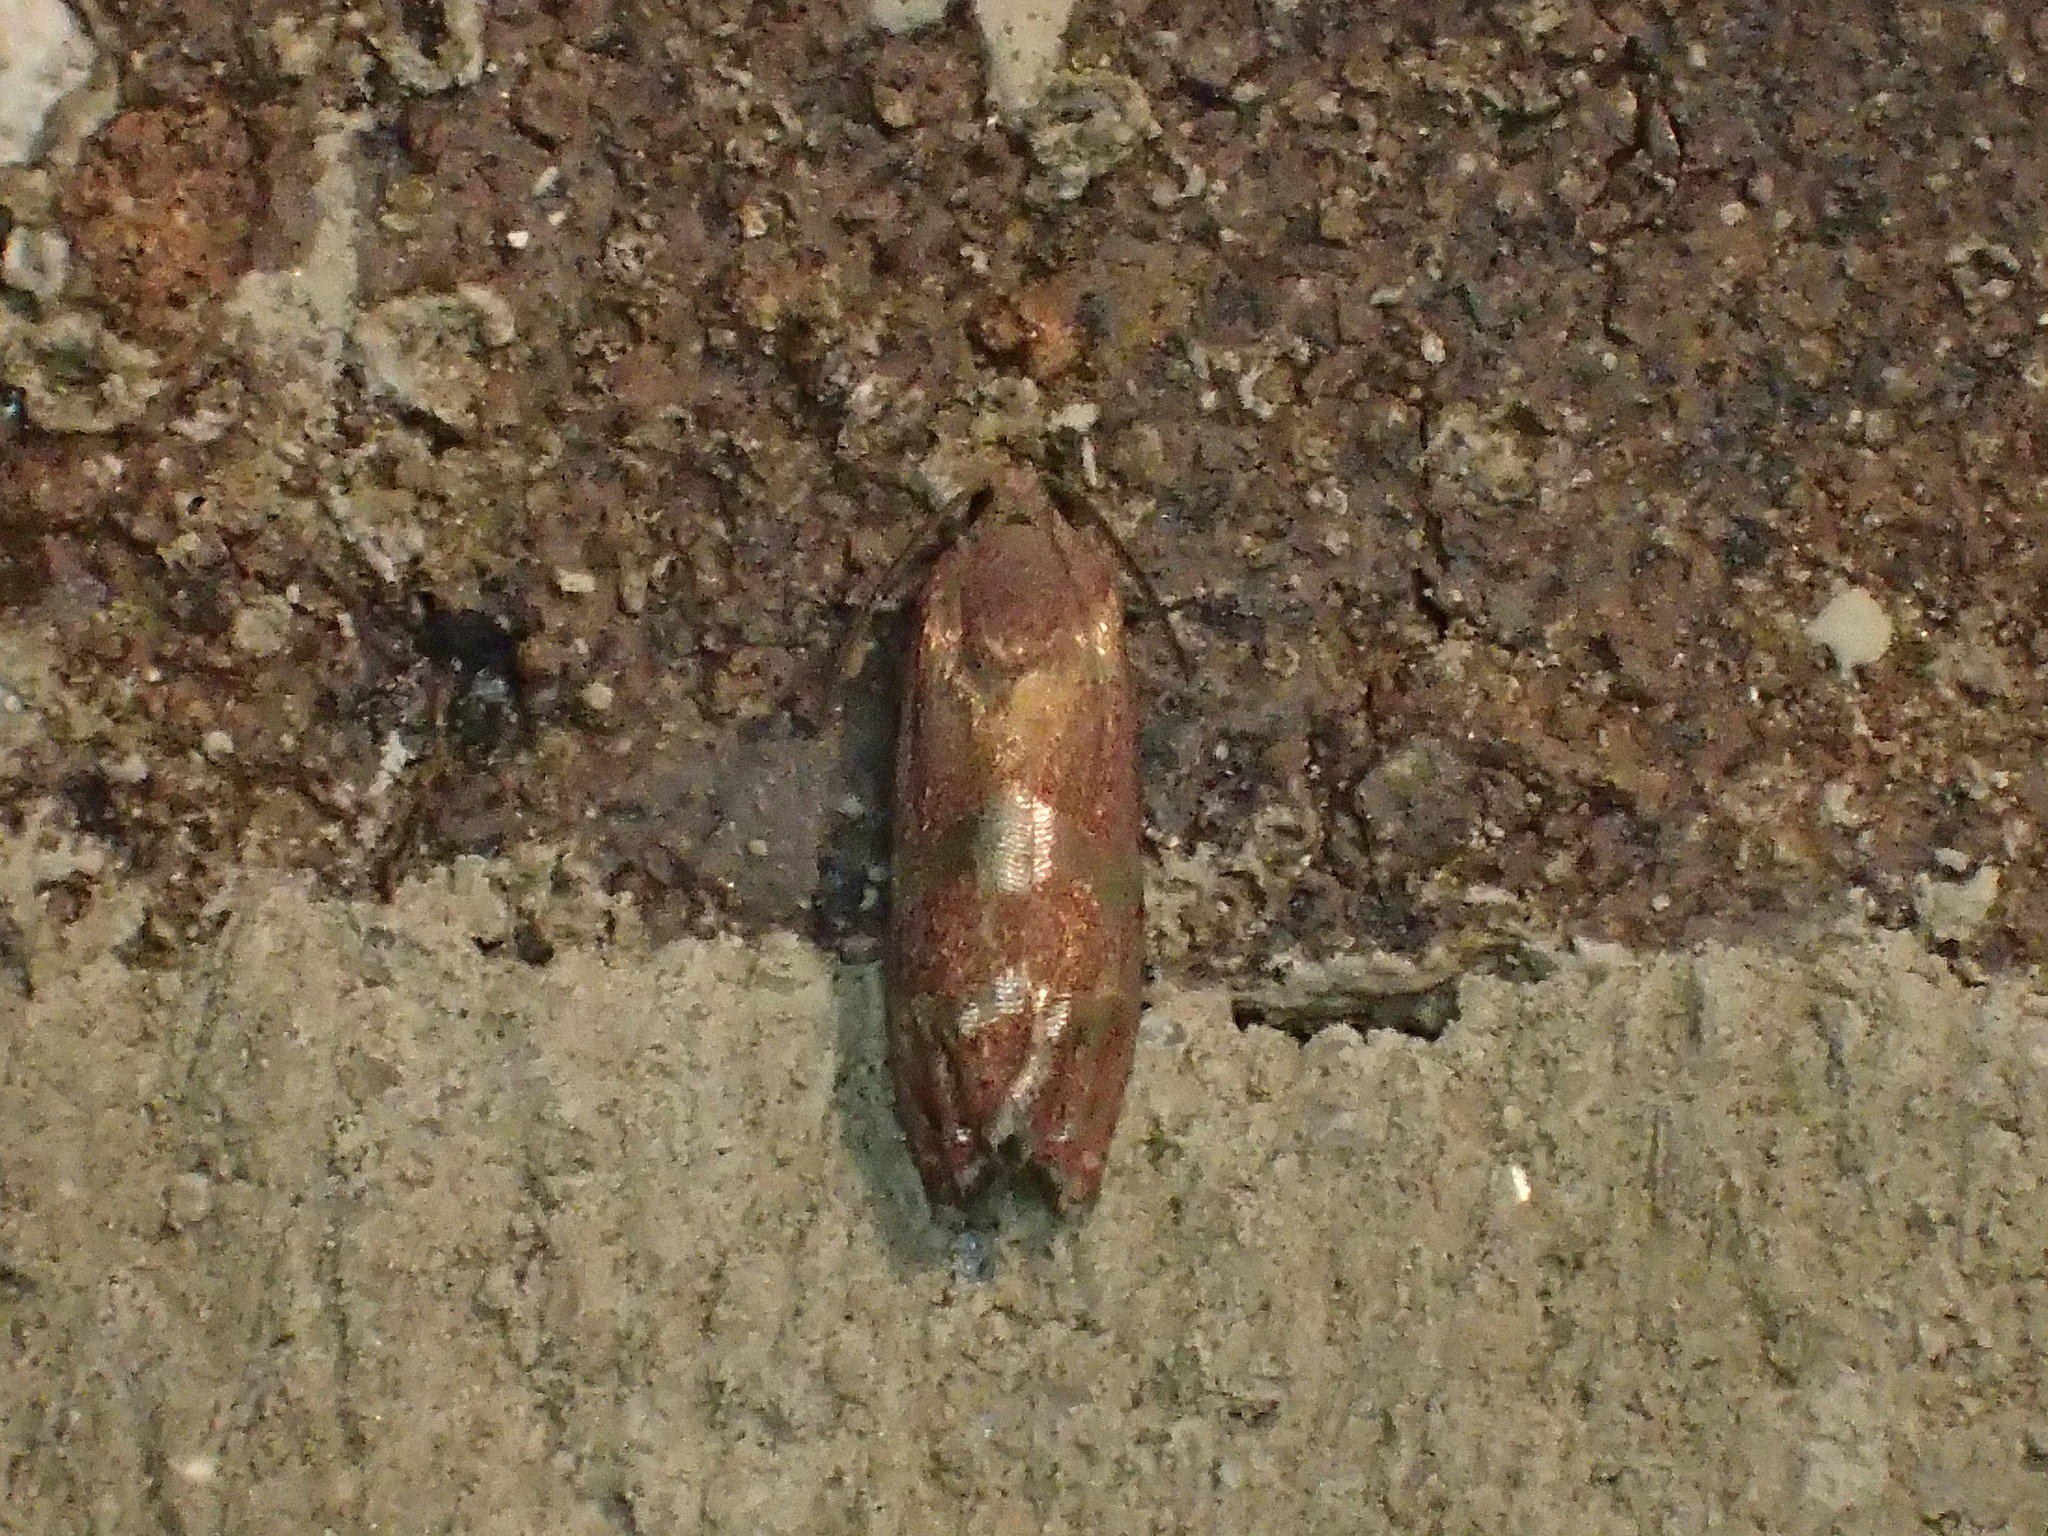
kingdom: Animalia
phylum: Arthropoda
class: Insecta
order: Lepidoptera
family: Tortricidae
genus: Cydia
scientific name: Cydia latiferreana
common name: Filbertworm moth
